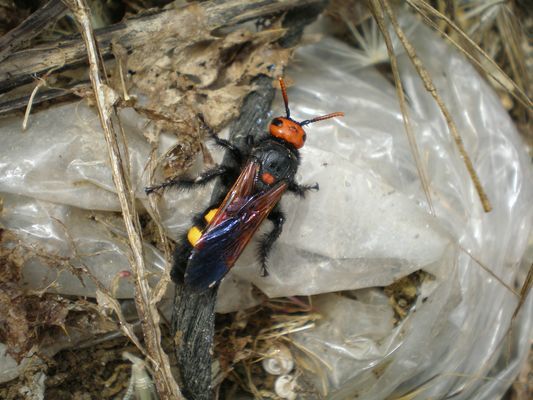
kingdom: Animalia
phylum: Arthropoda
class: Insecta
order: Hymenoptera
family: Scoliidae
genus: Megascolia
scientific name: Megascolia bidens
